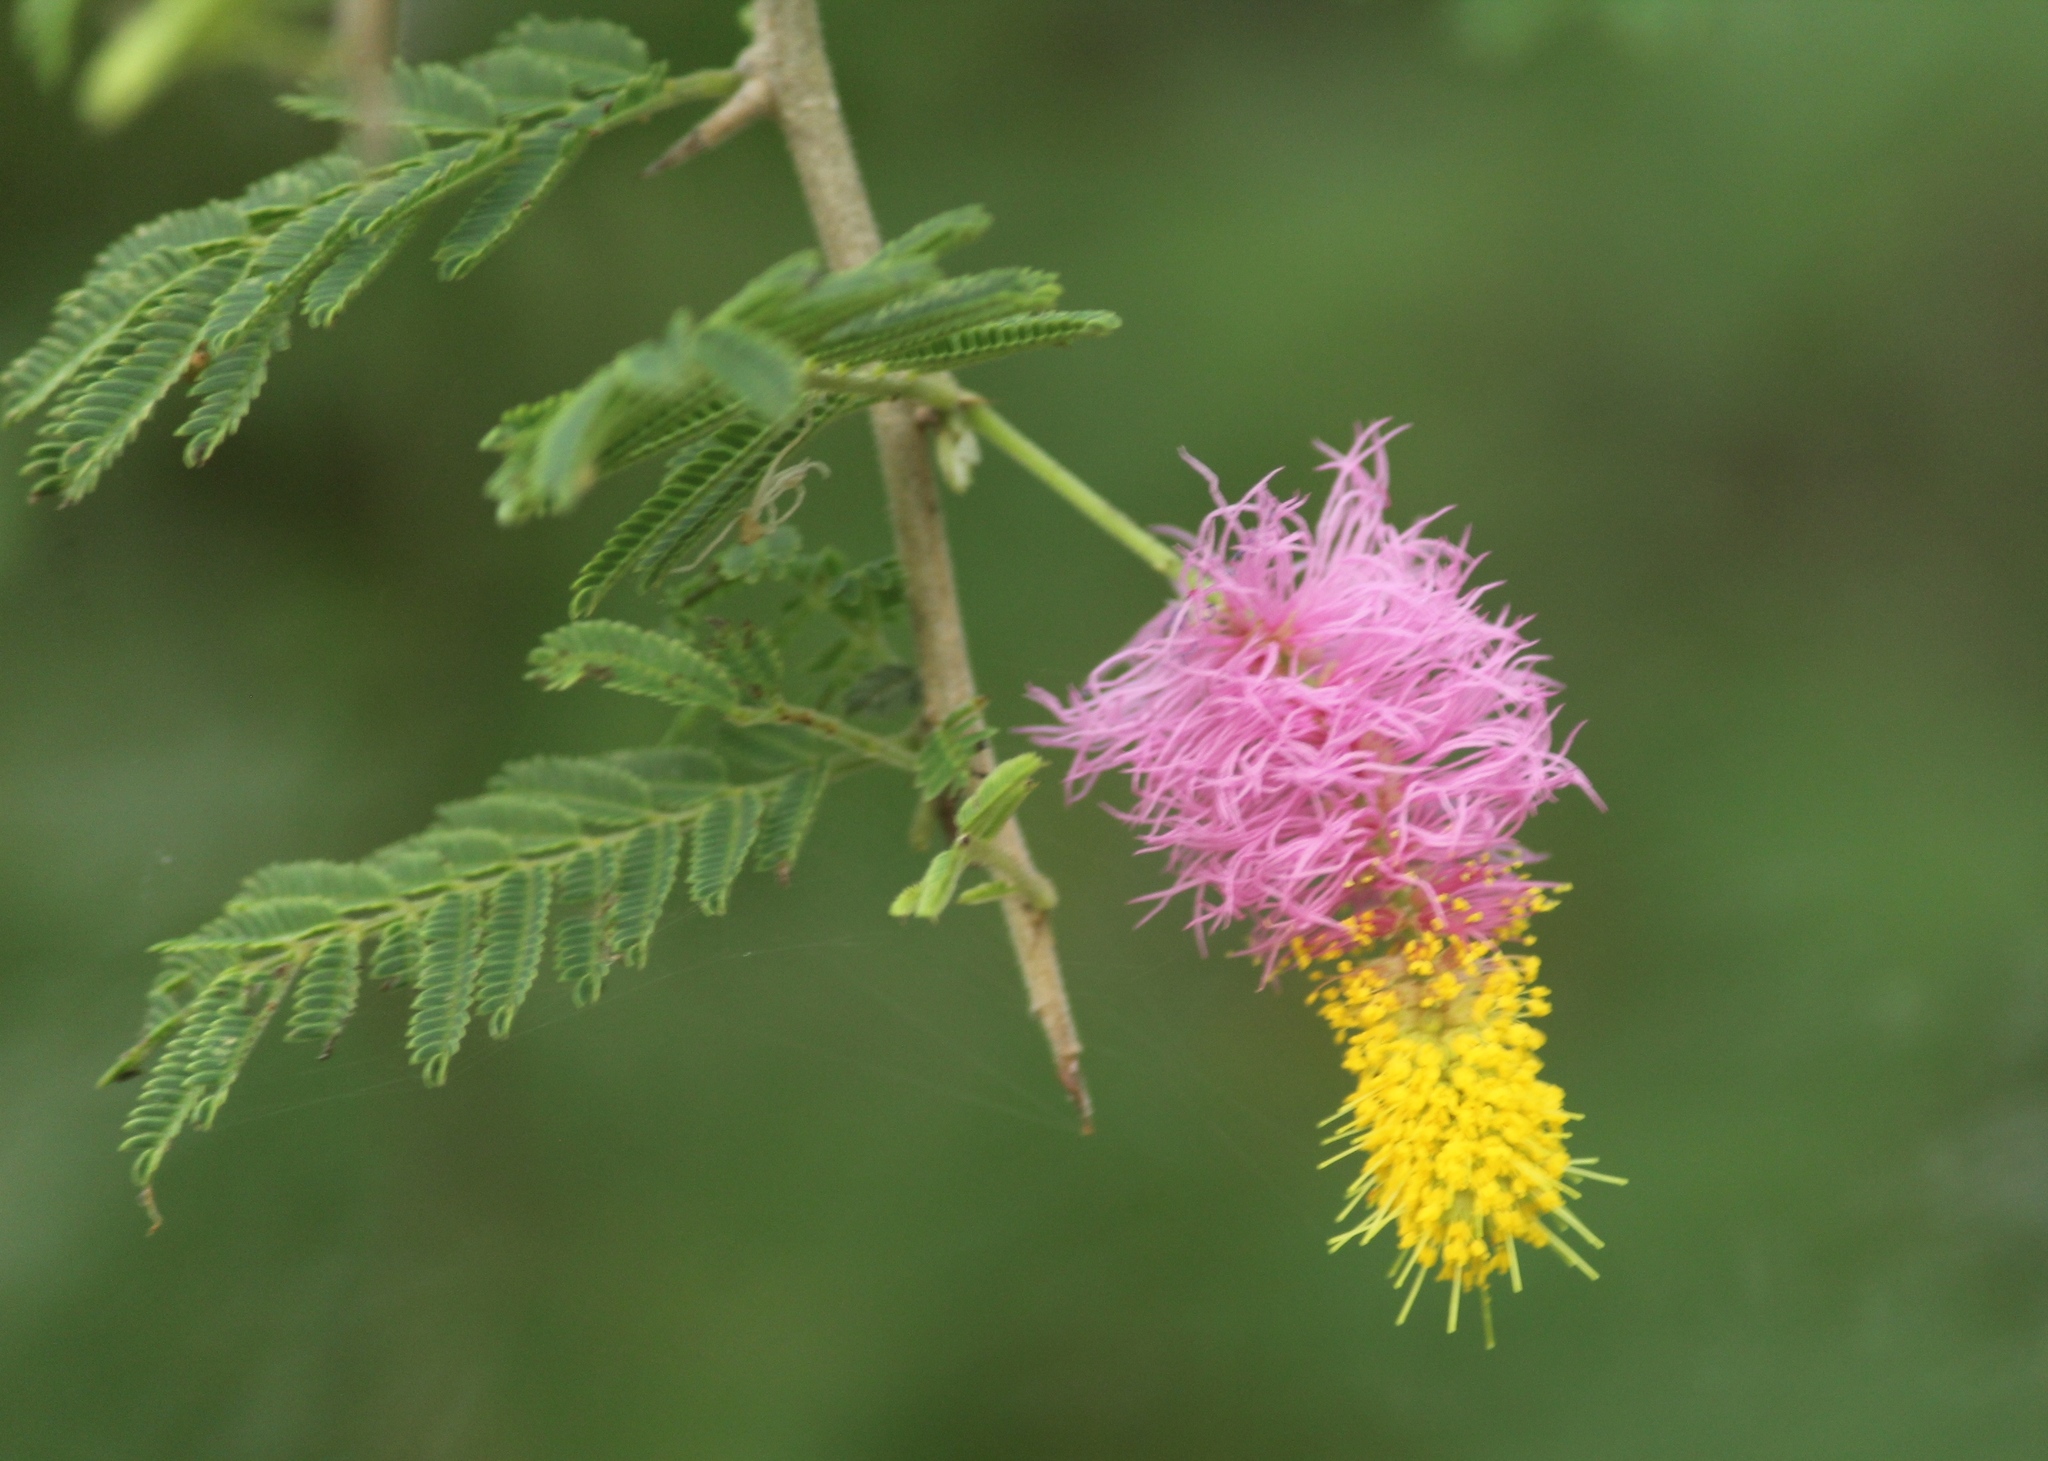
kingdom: Plantae
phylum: Tracheophyta
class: Magnoliopsida
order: Fabales
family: Fabaceae
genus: Dichrostachys
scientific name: Dichrostachys cinerea
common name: Sicklebush
